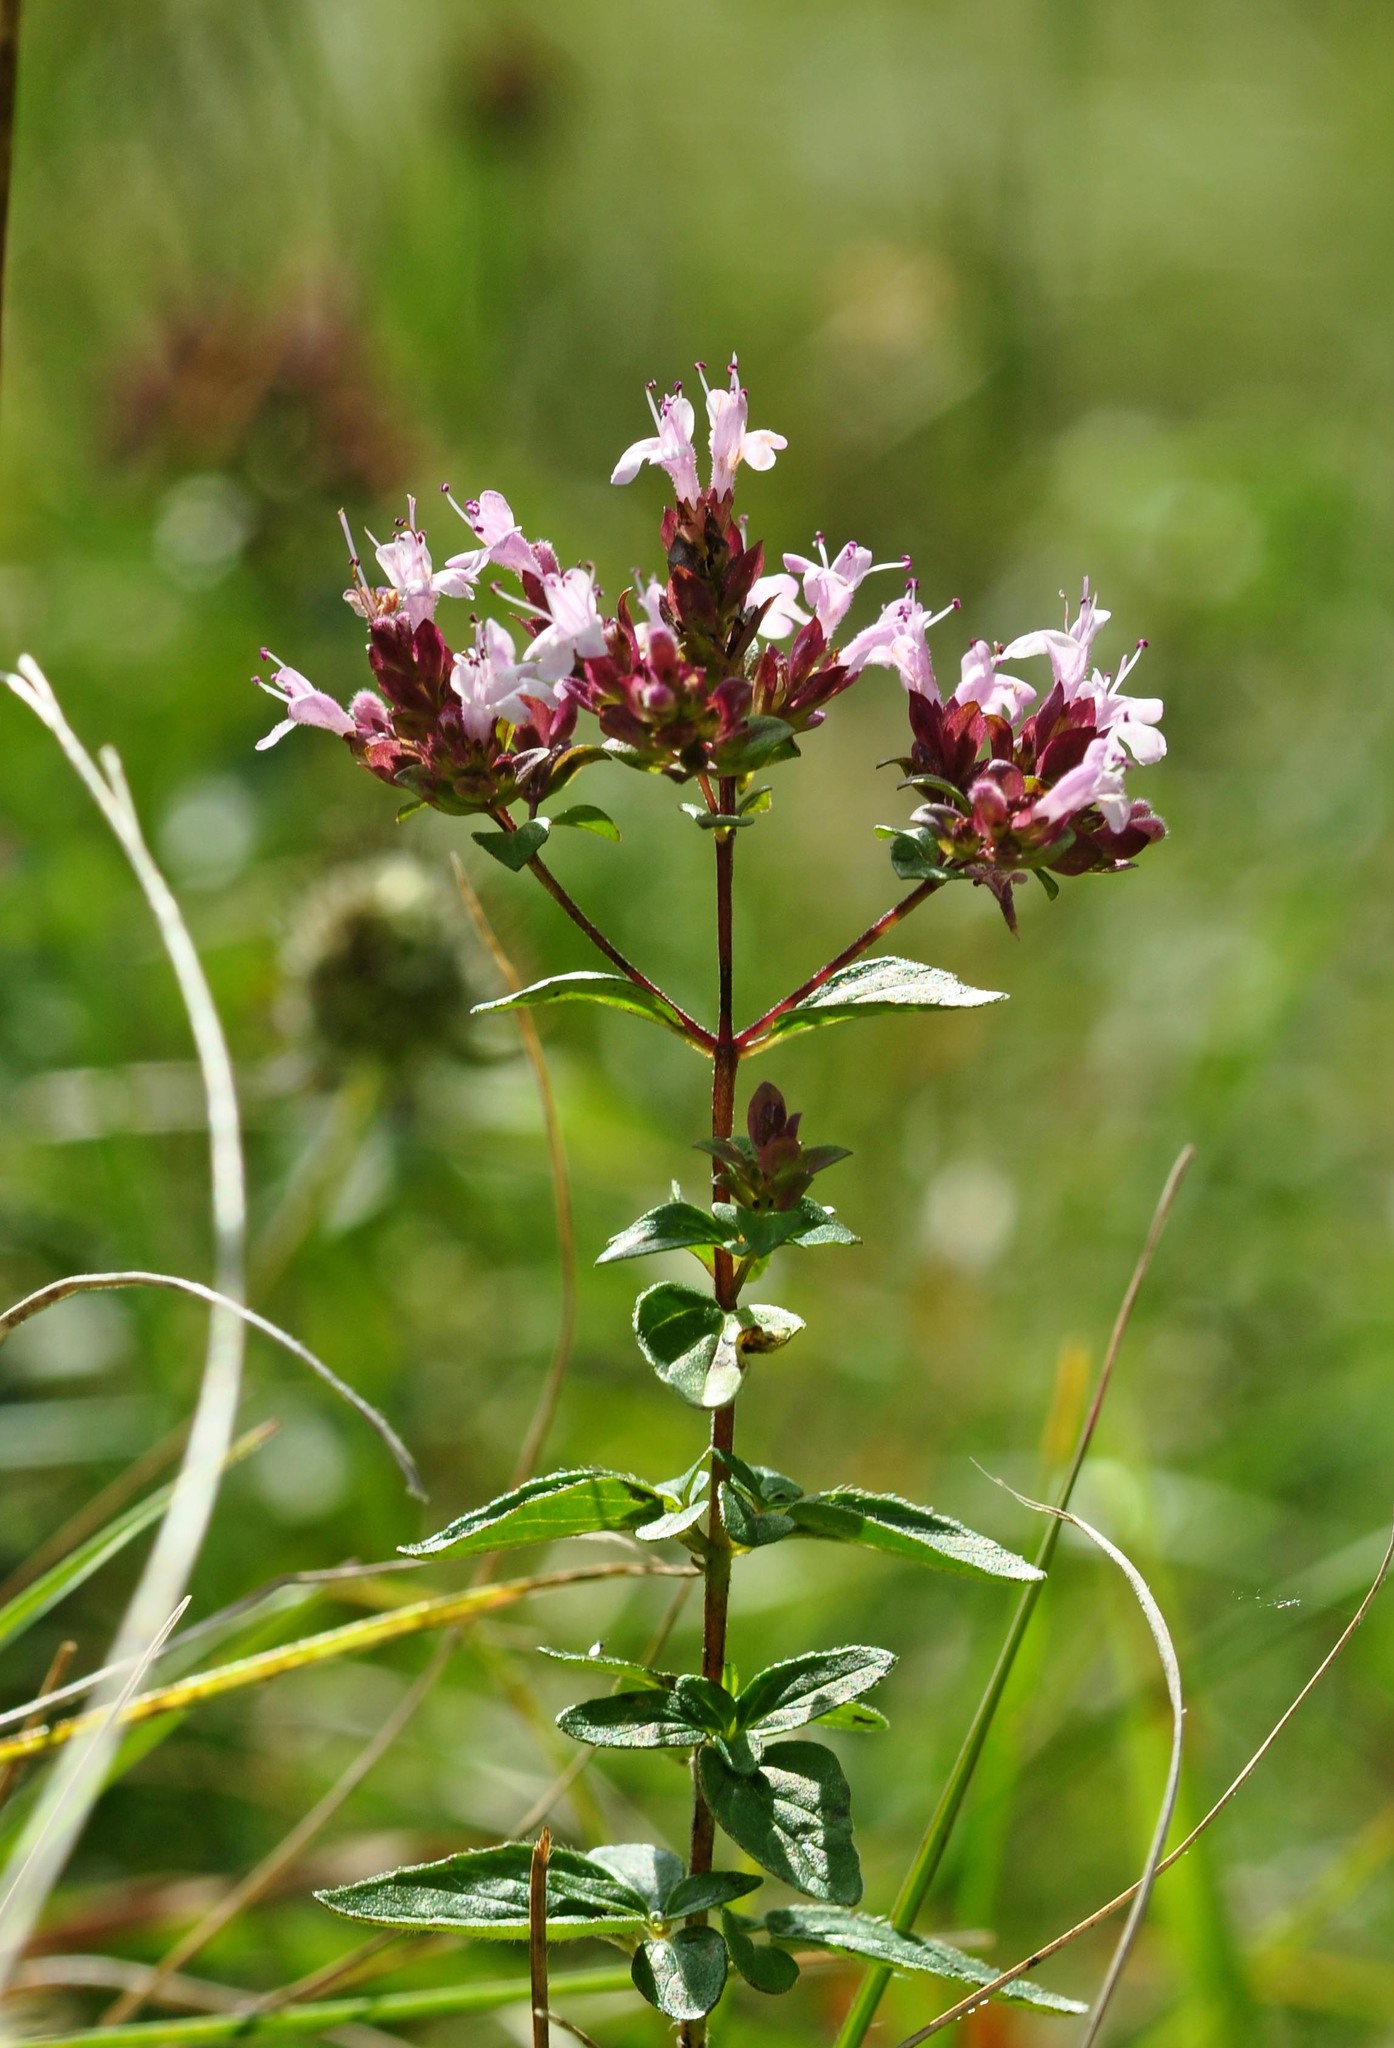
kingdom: Plantae
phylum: Tracheophyta
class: Magnoliopsida
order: Lamiales
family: Lamiaceae
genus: Origanum
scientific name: Origanum vulgare
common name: Wild marjoram
